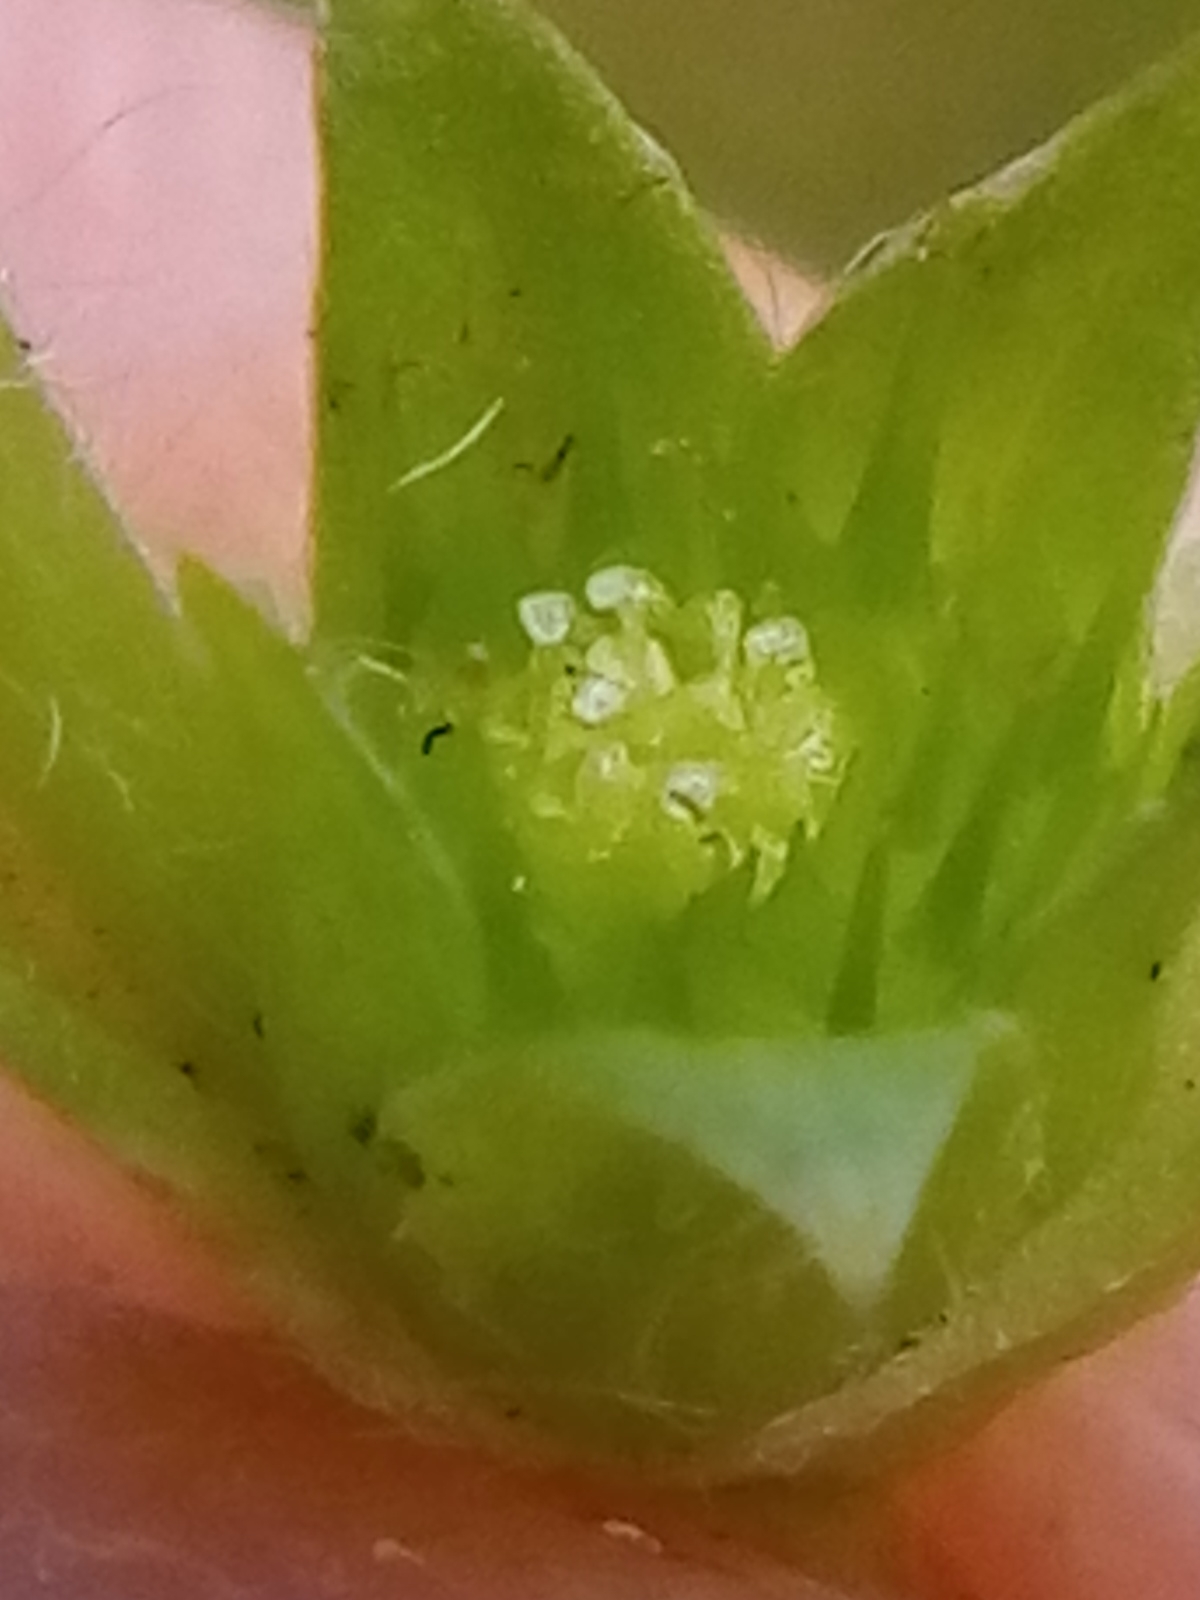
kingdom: Plantae
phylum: Tracheophyta
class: Magnoliopsida
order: Asterales
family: Asteraceae
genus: Soliva
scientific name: Soliva sessilis
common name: Field burrweed
